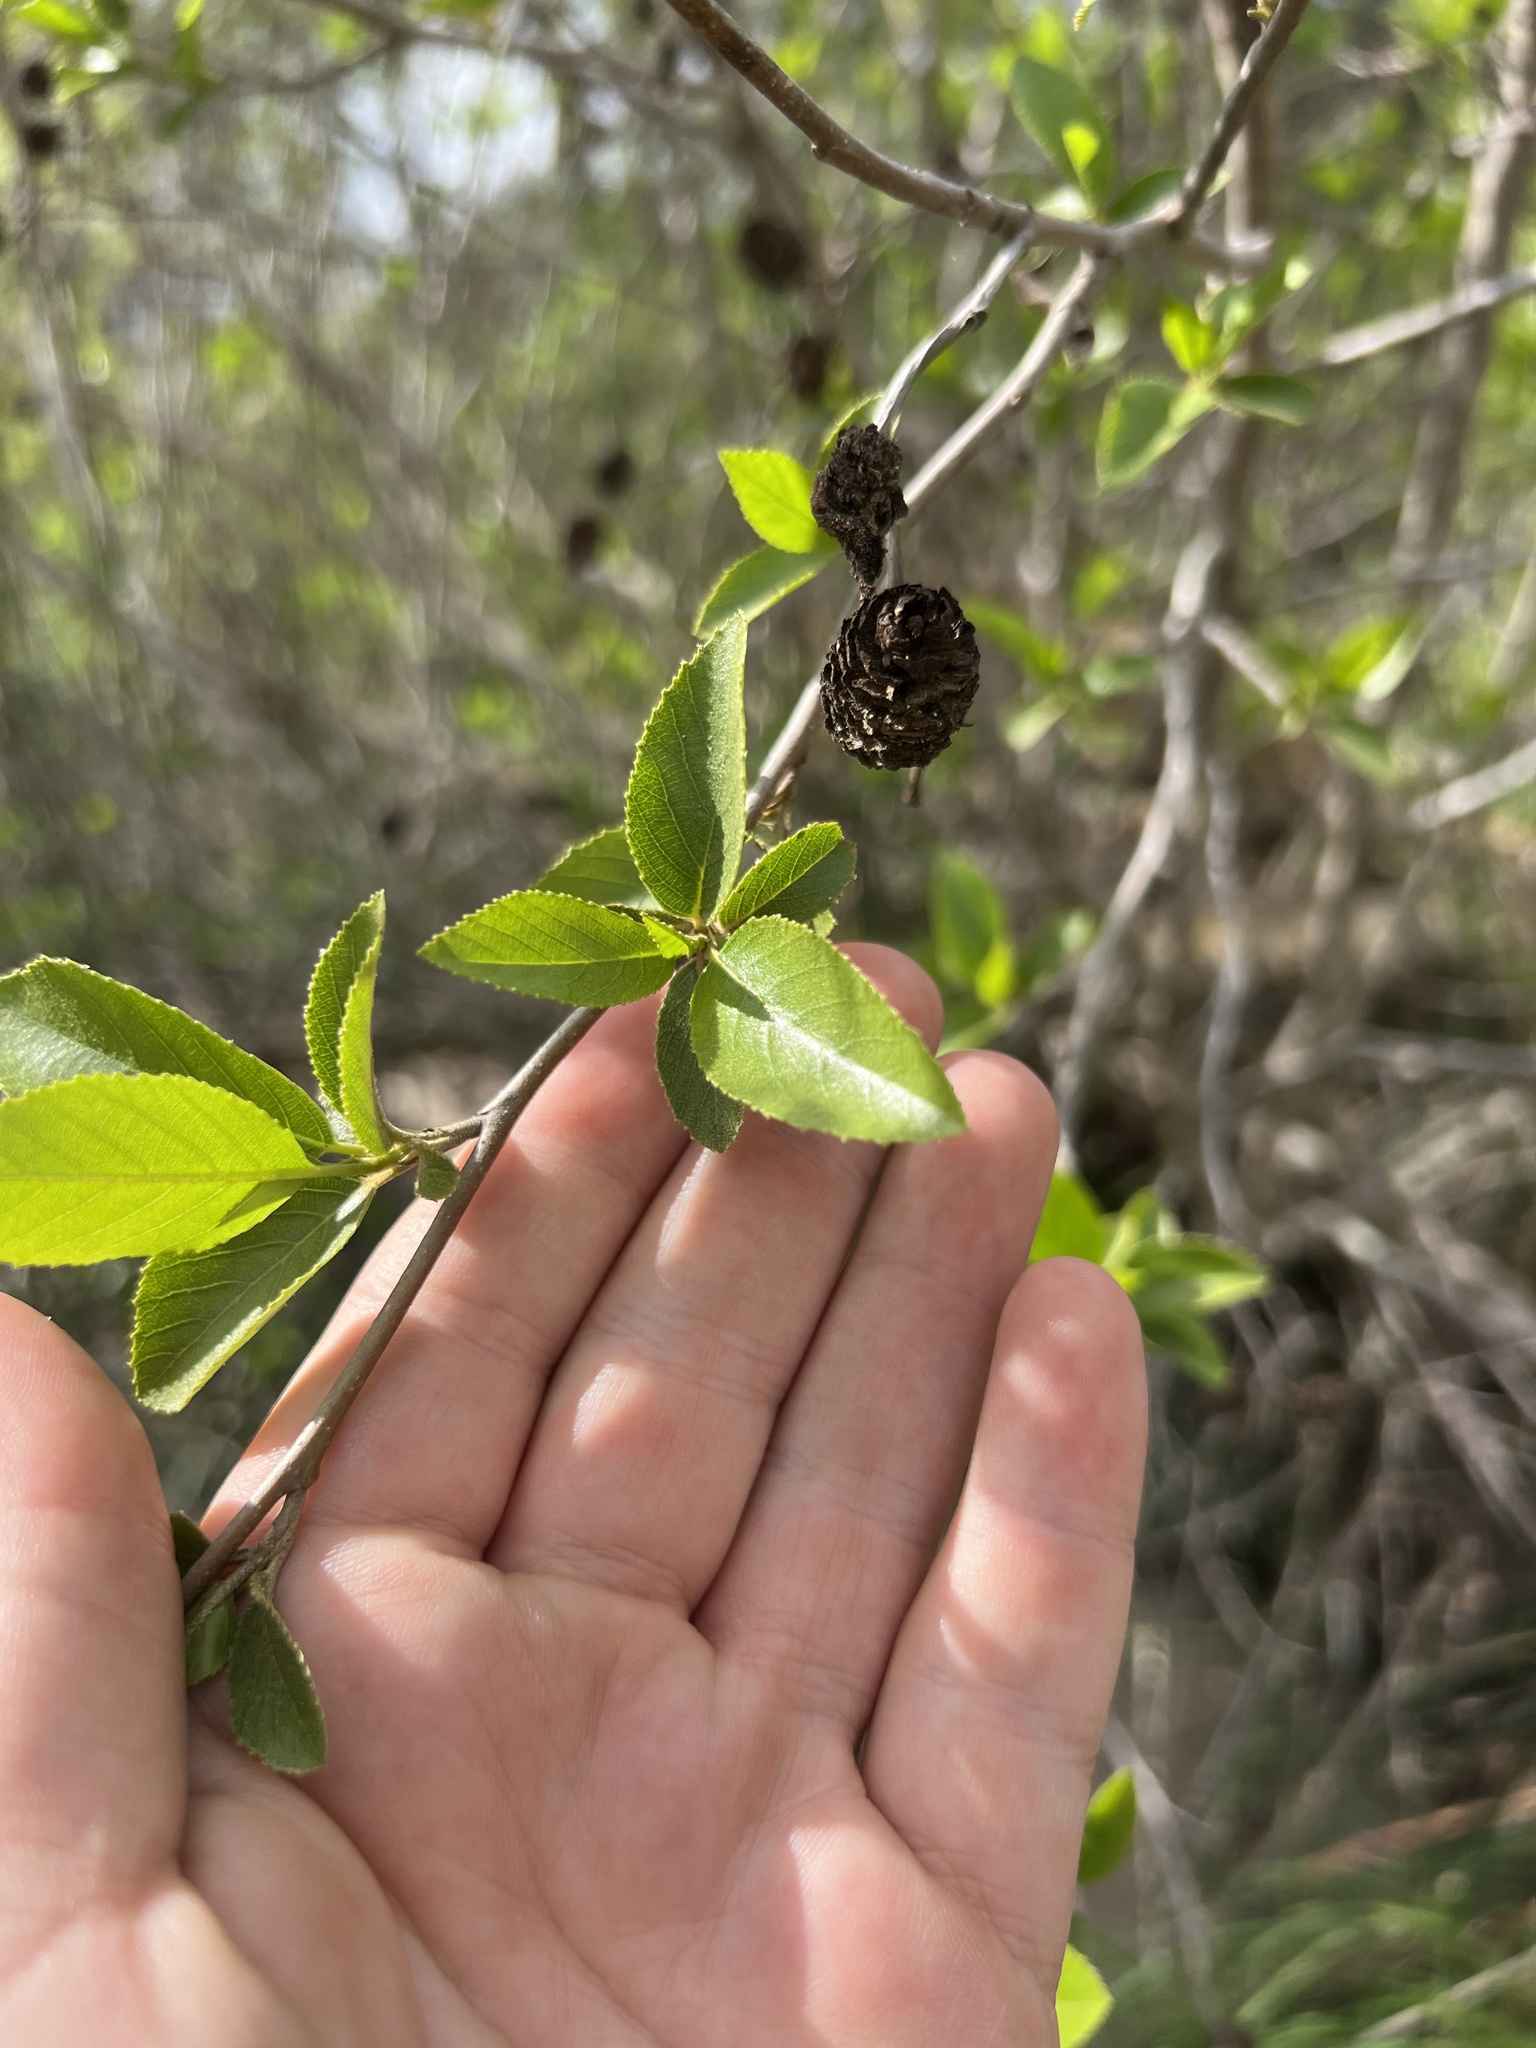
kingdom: Plantae
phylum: Tracheophyta
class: Magnoliopsida
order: Fagales
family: Betulaceae
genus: Alnus
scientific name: Alnus maritima
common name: Seaside alder
